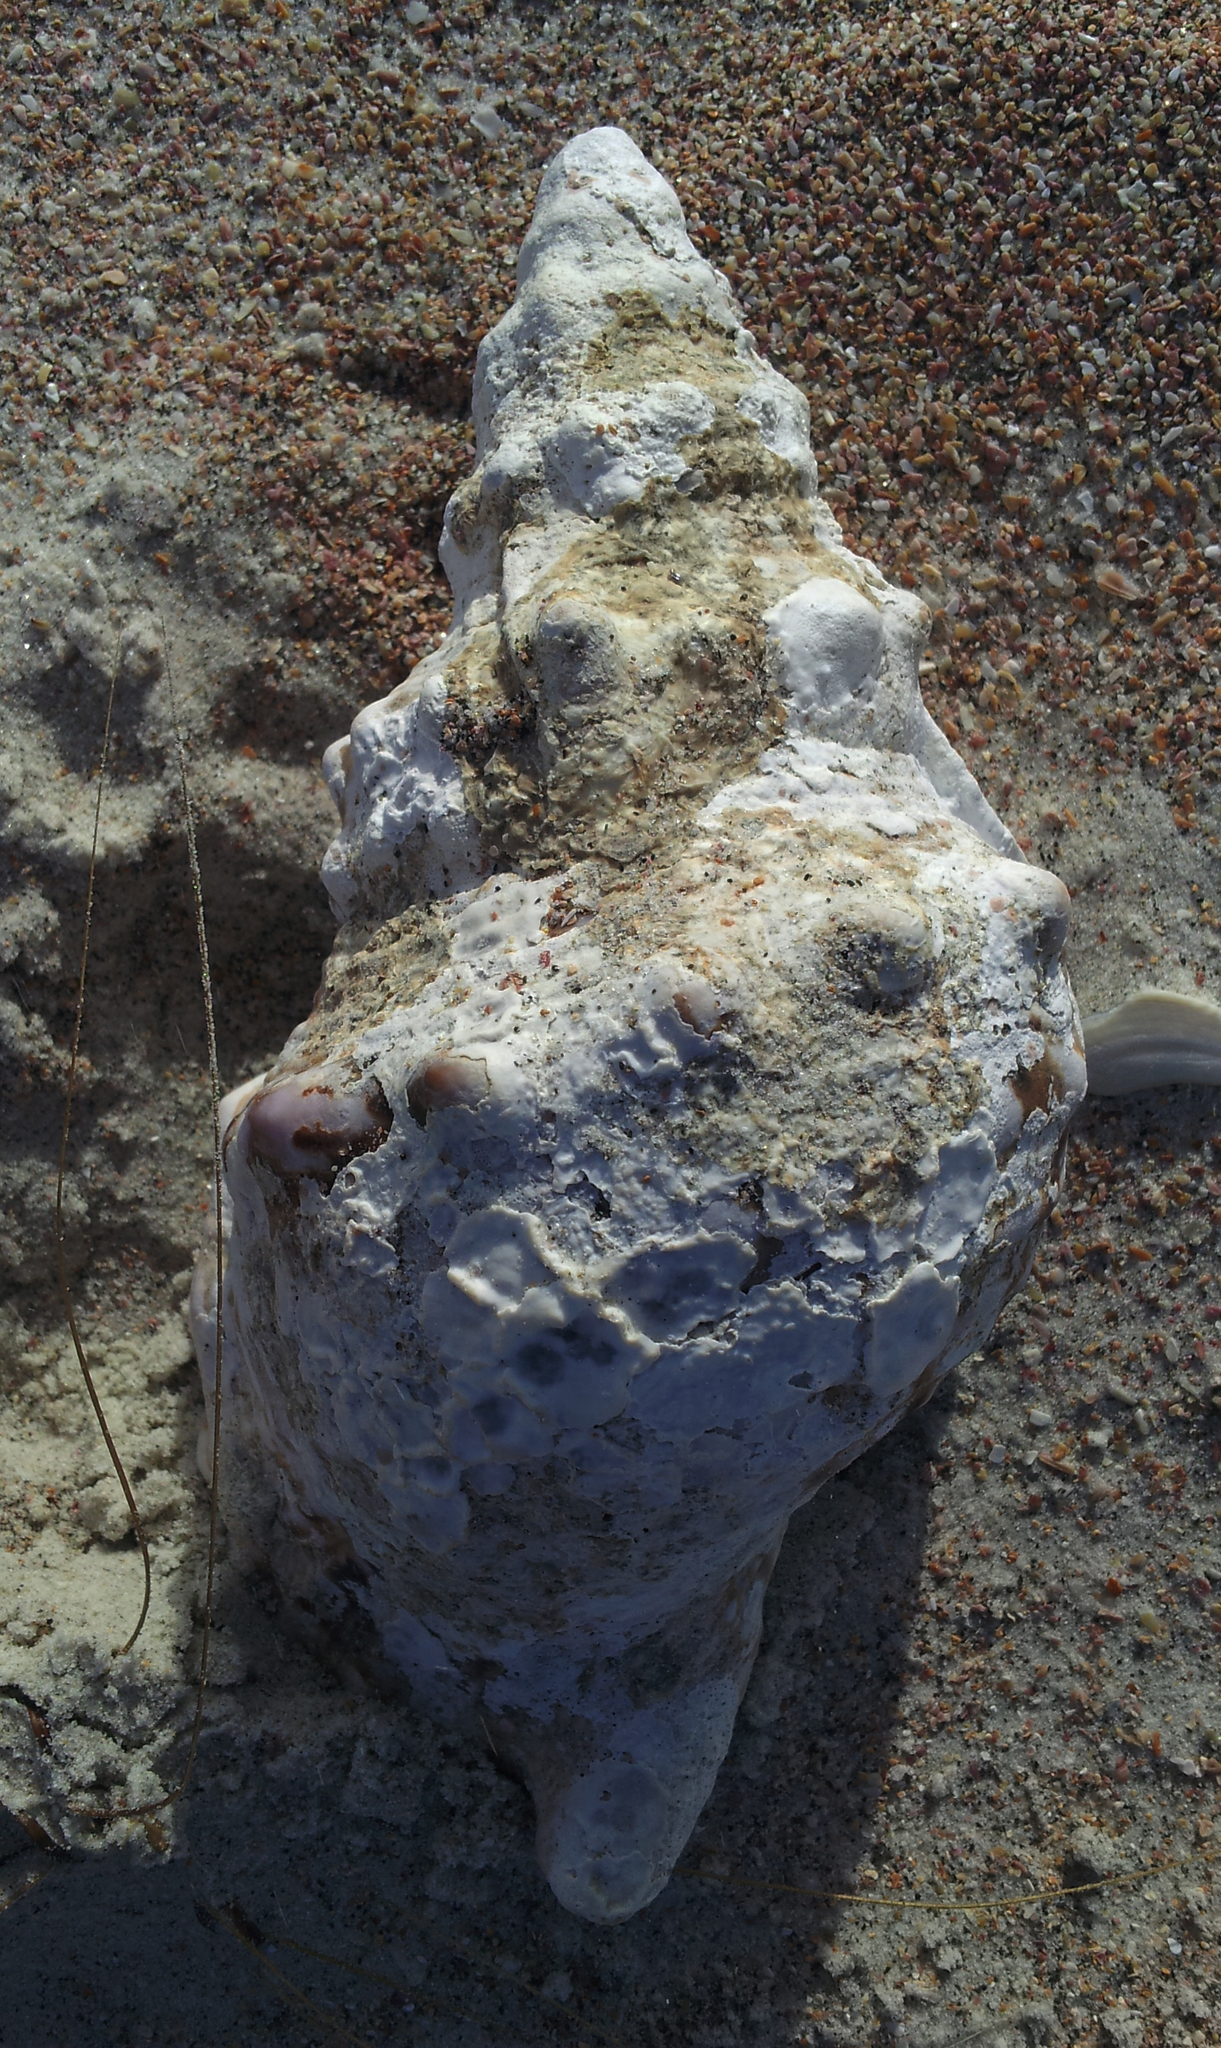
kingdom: Animalia
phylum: Mollusca
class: Gastropoda
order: Littorinimorpha
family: Charoniidae
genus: Charonia
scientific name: Charonia lampas
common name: Knobbed triton
